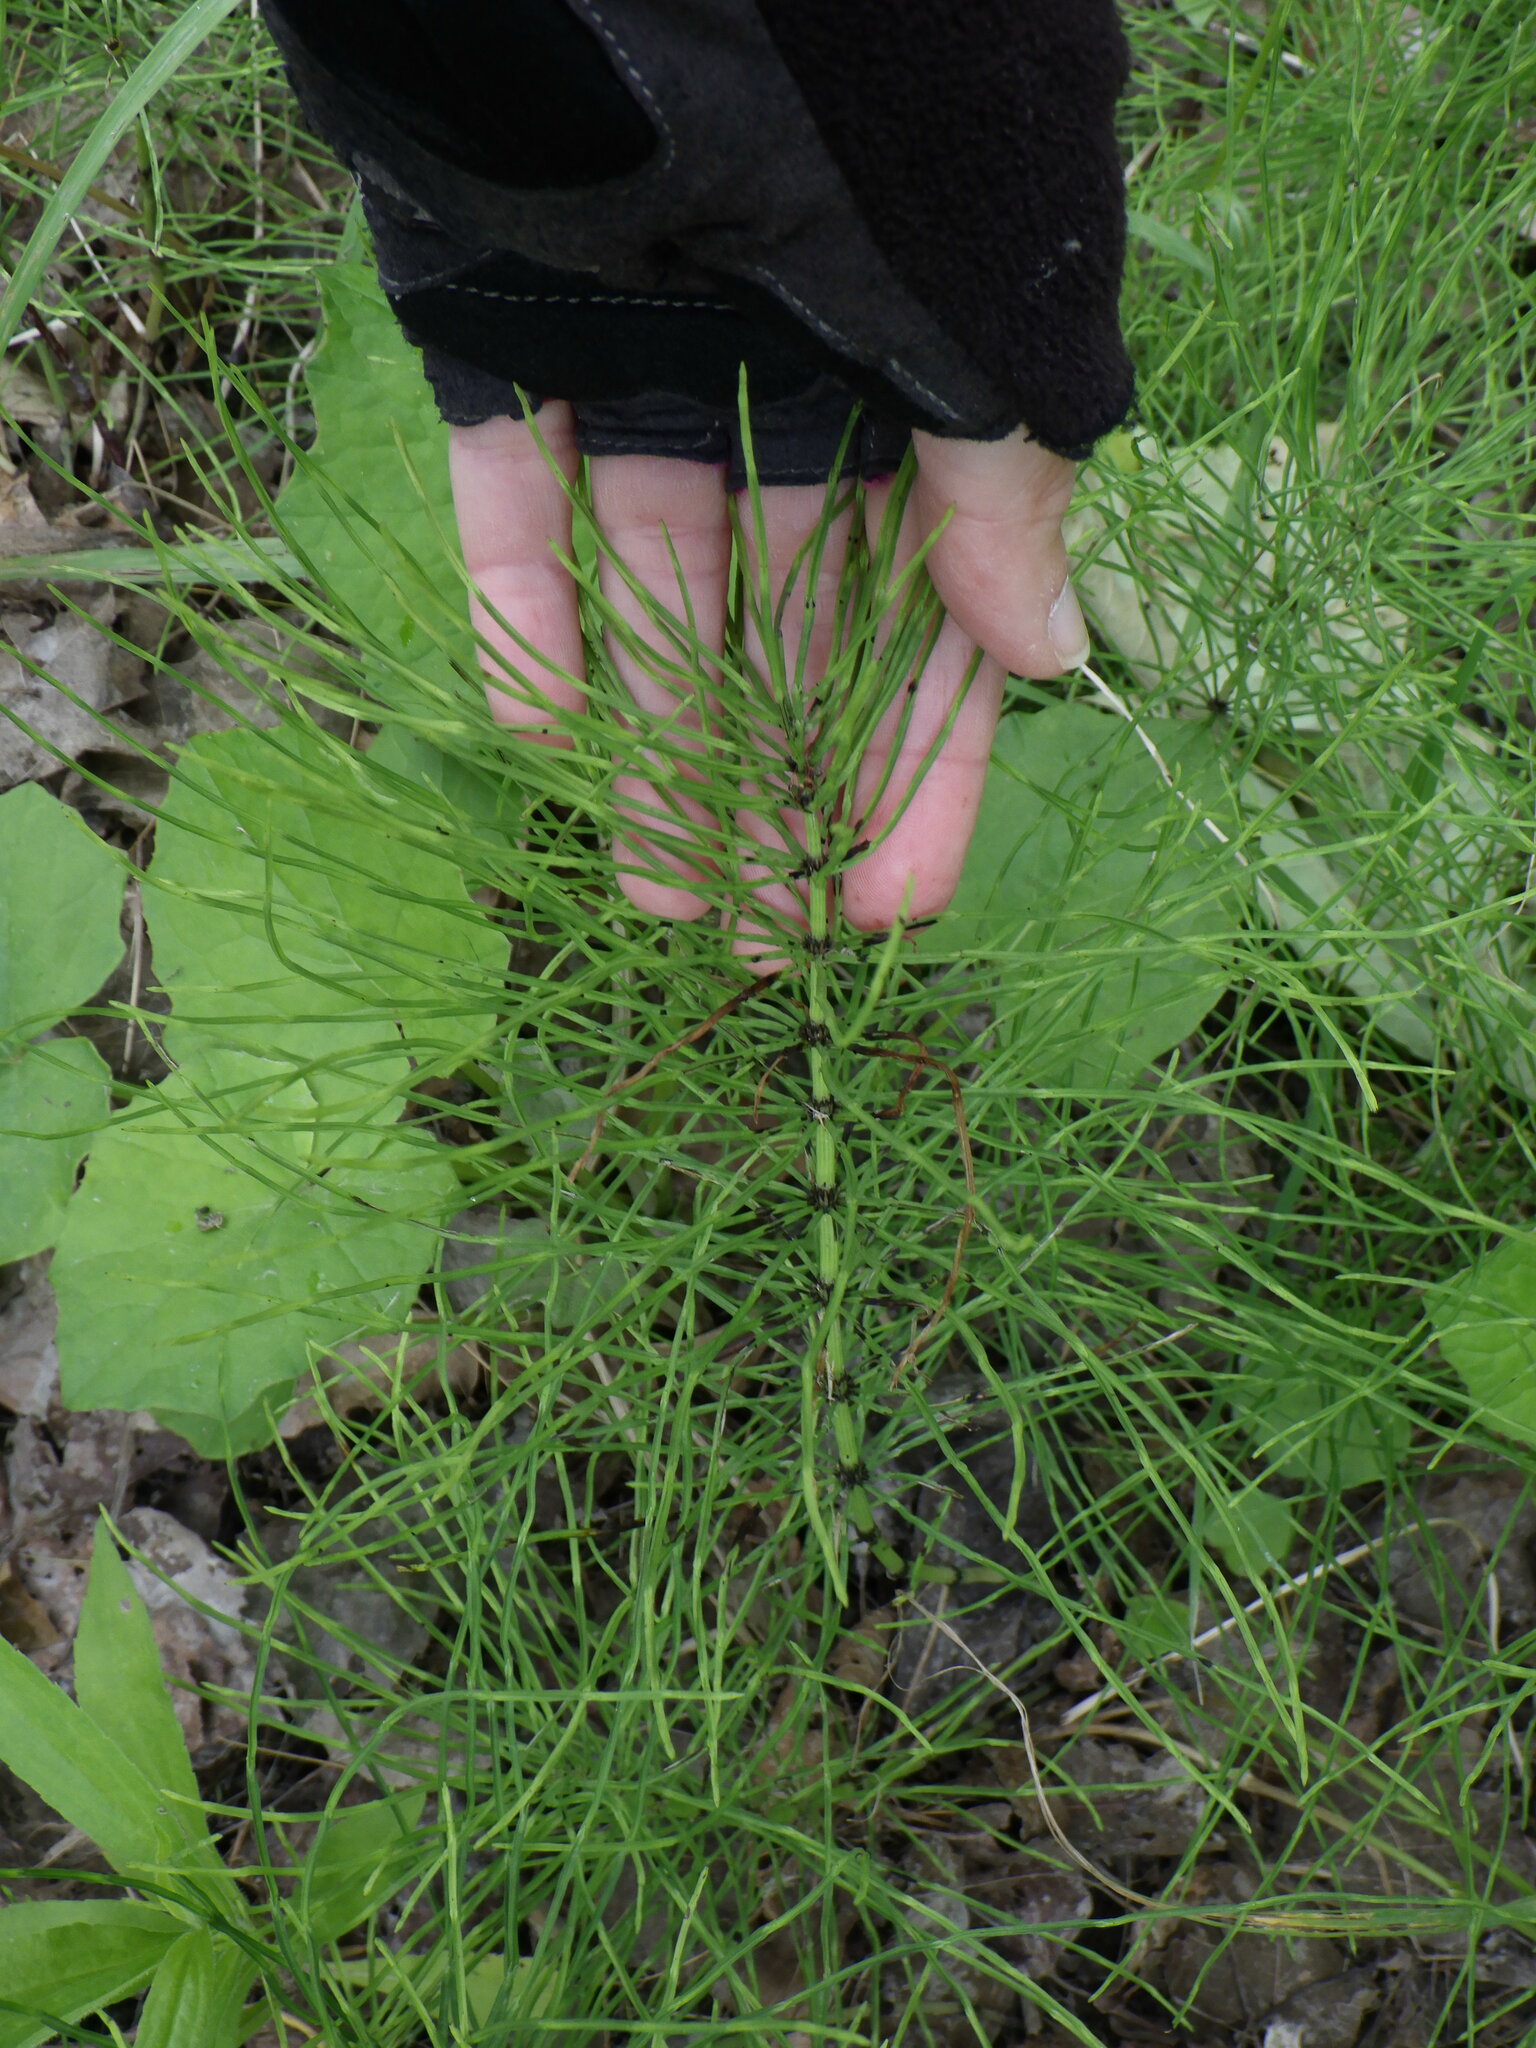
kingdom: Plantae
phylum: Tracheophyta
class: Polypodiopsida
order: Equisetales
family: Equisetaceae
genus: Equisetum
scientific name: Equisetum arvense
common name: Field horsetail
